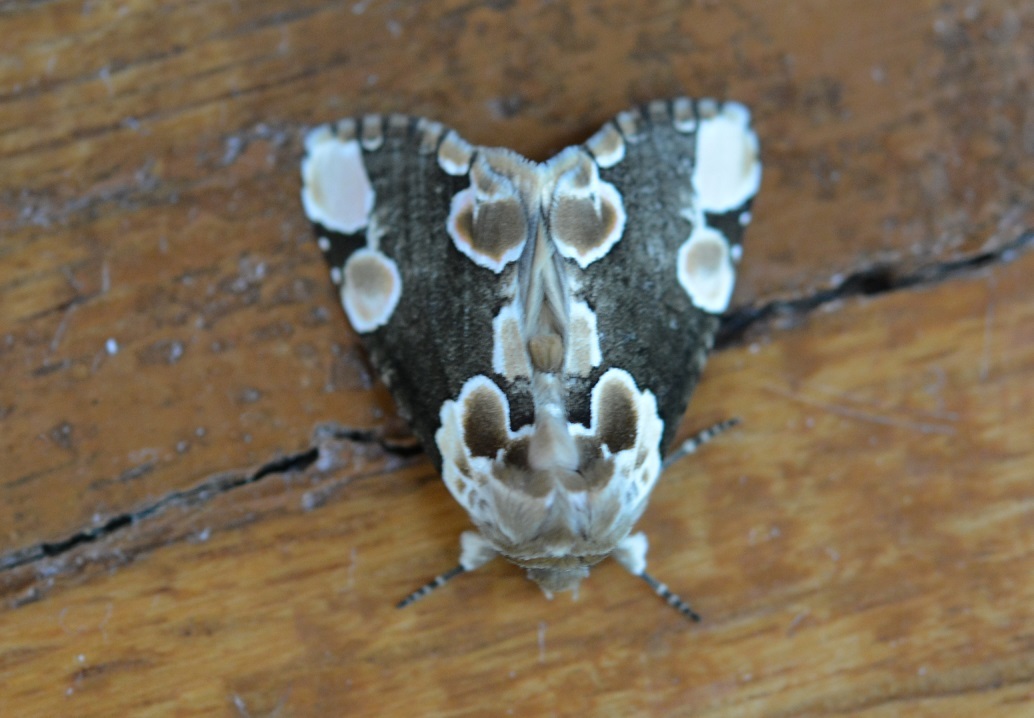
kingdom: Animalia
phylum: Arthropoda
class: Insecta
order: Lepidoptera
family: Drepanidae
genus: Thyatira
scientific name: Thyatira mexicana
